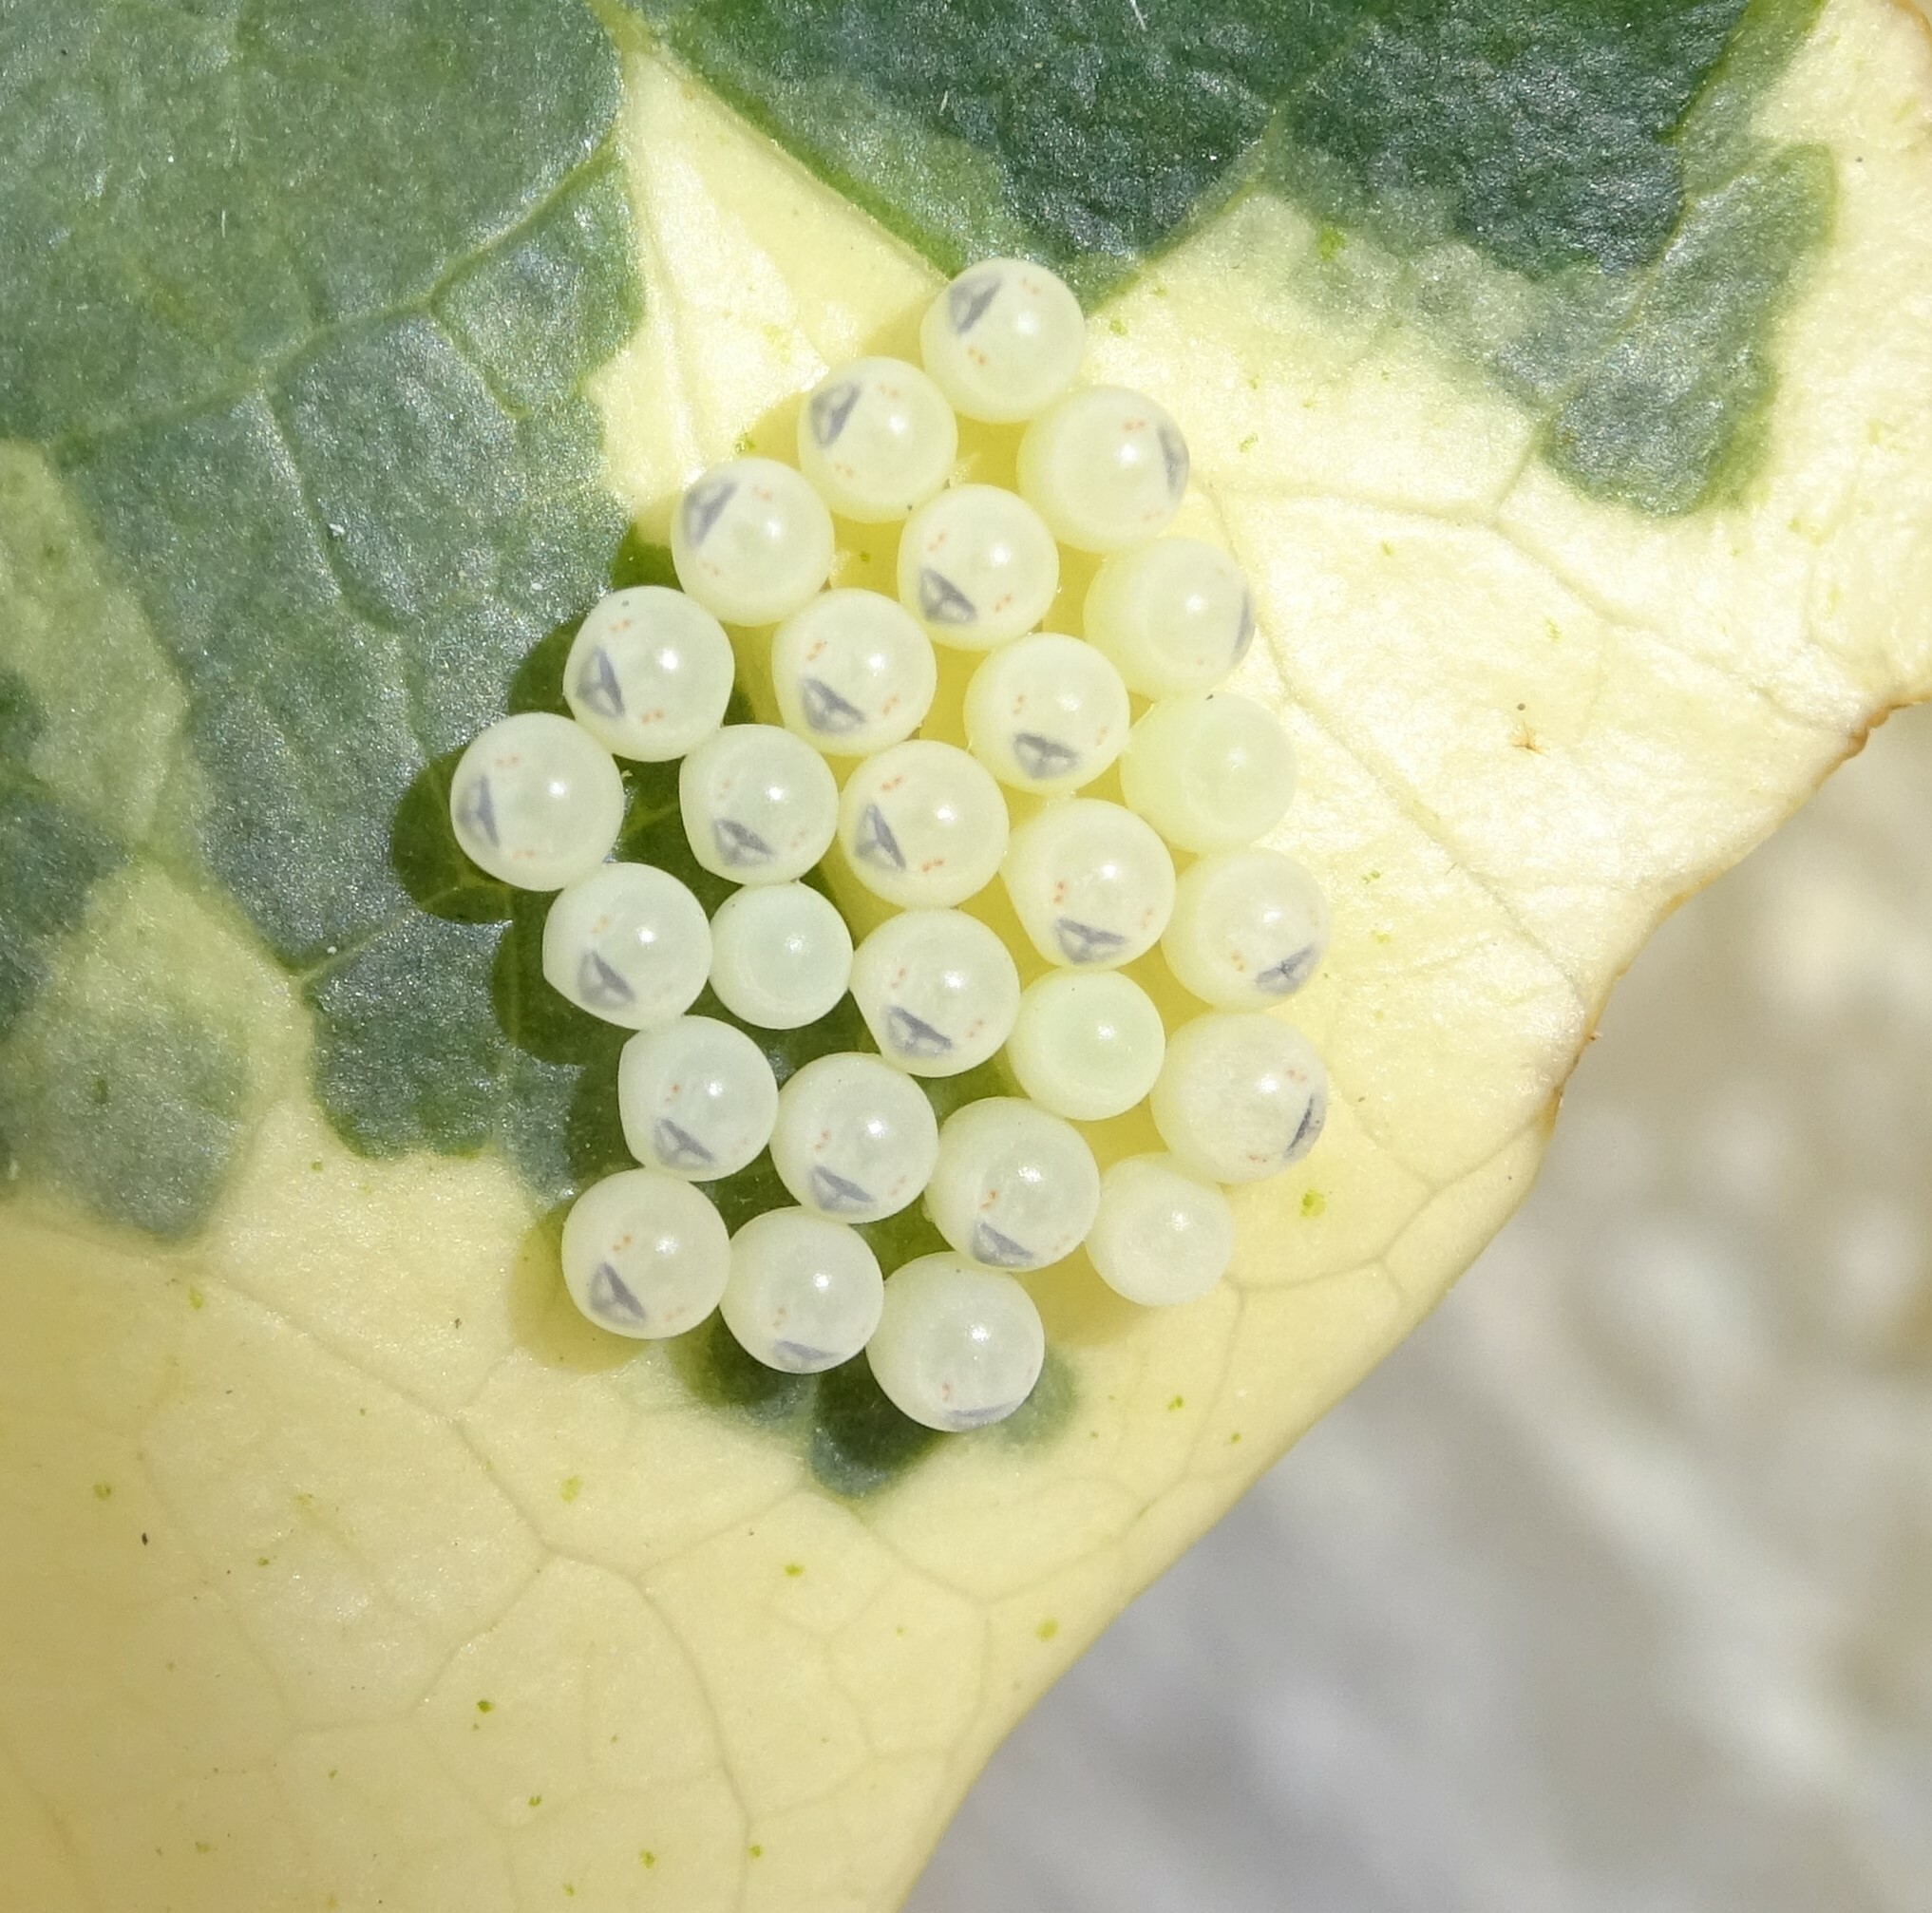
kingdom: Animalia
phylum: Arthropoda
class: Insecta
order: Hemiptera
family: Pentatomidae
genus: Halyomorpha
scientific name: Halyomorpha halys
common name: Brown marmorated stink bug
